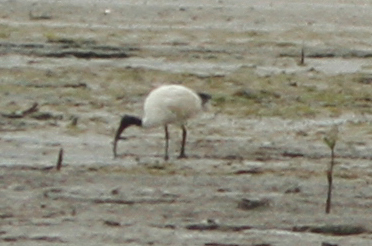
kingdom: Animalia
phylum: Chordata
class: Aves
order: Pelecaniformes
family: Threskiornithidae
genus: Threskiornis
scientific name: Threskiornis molucca
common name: Australian white ibis
